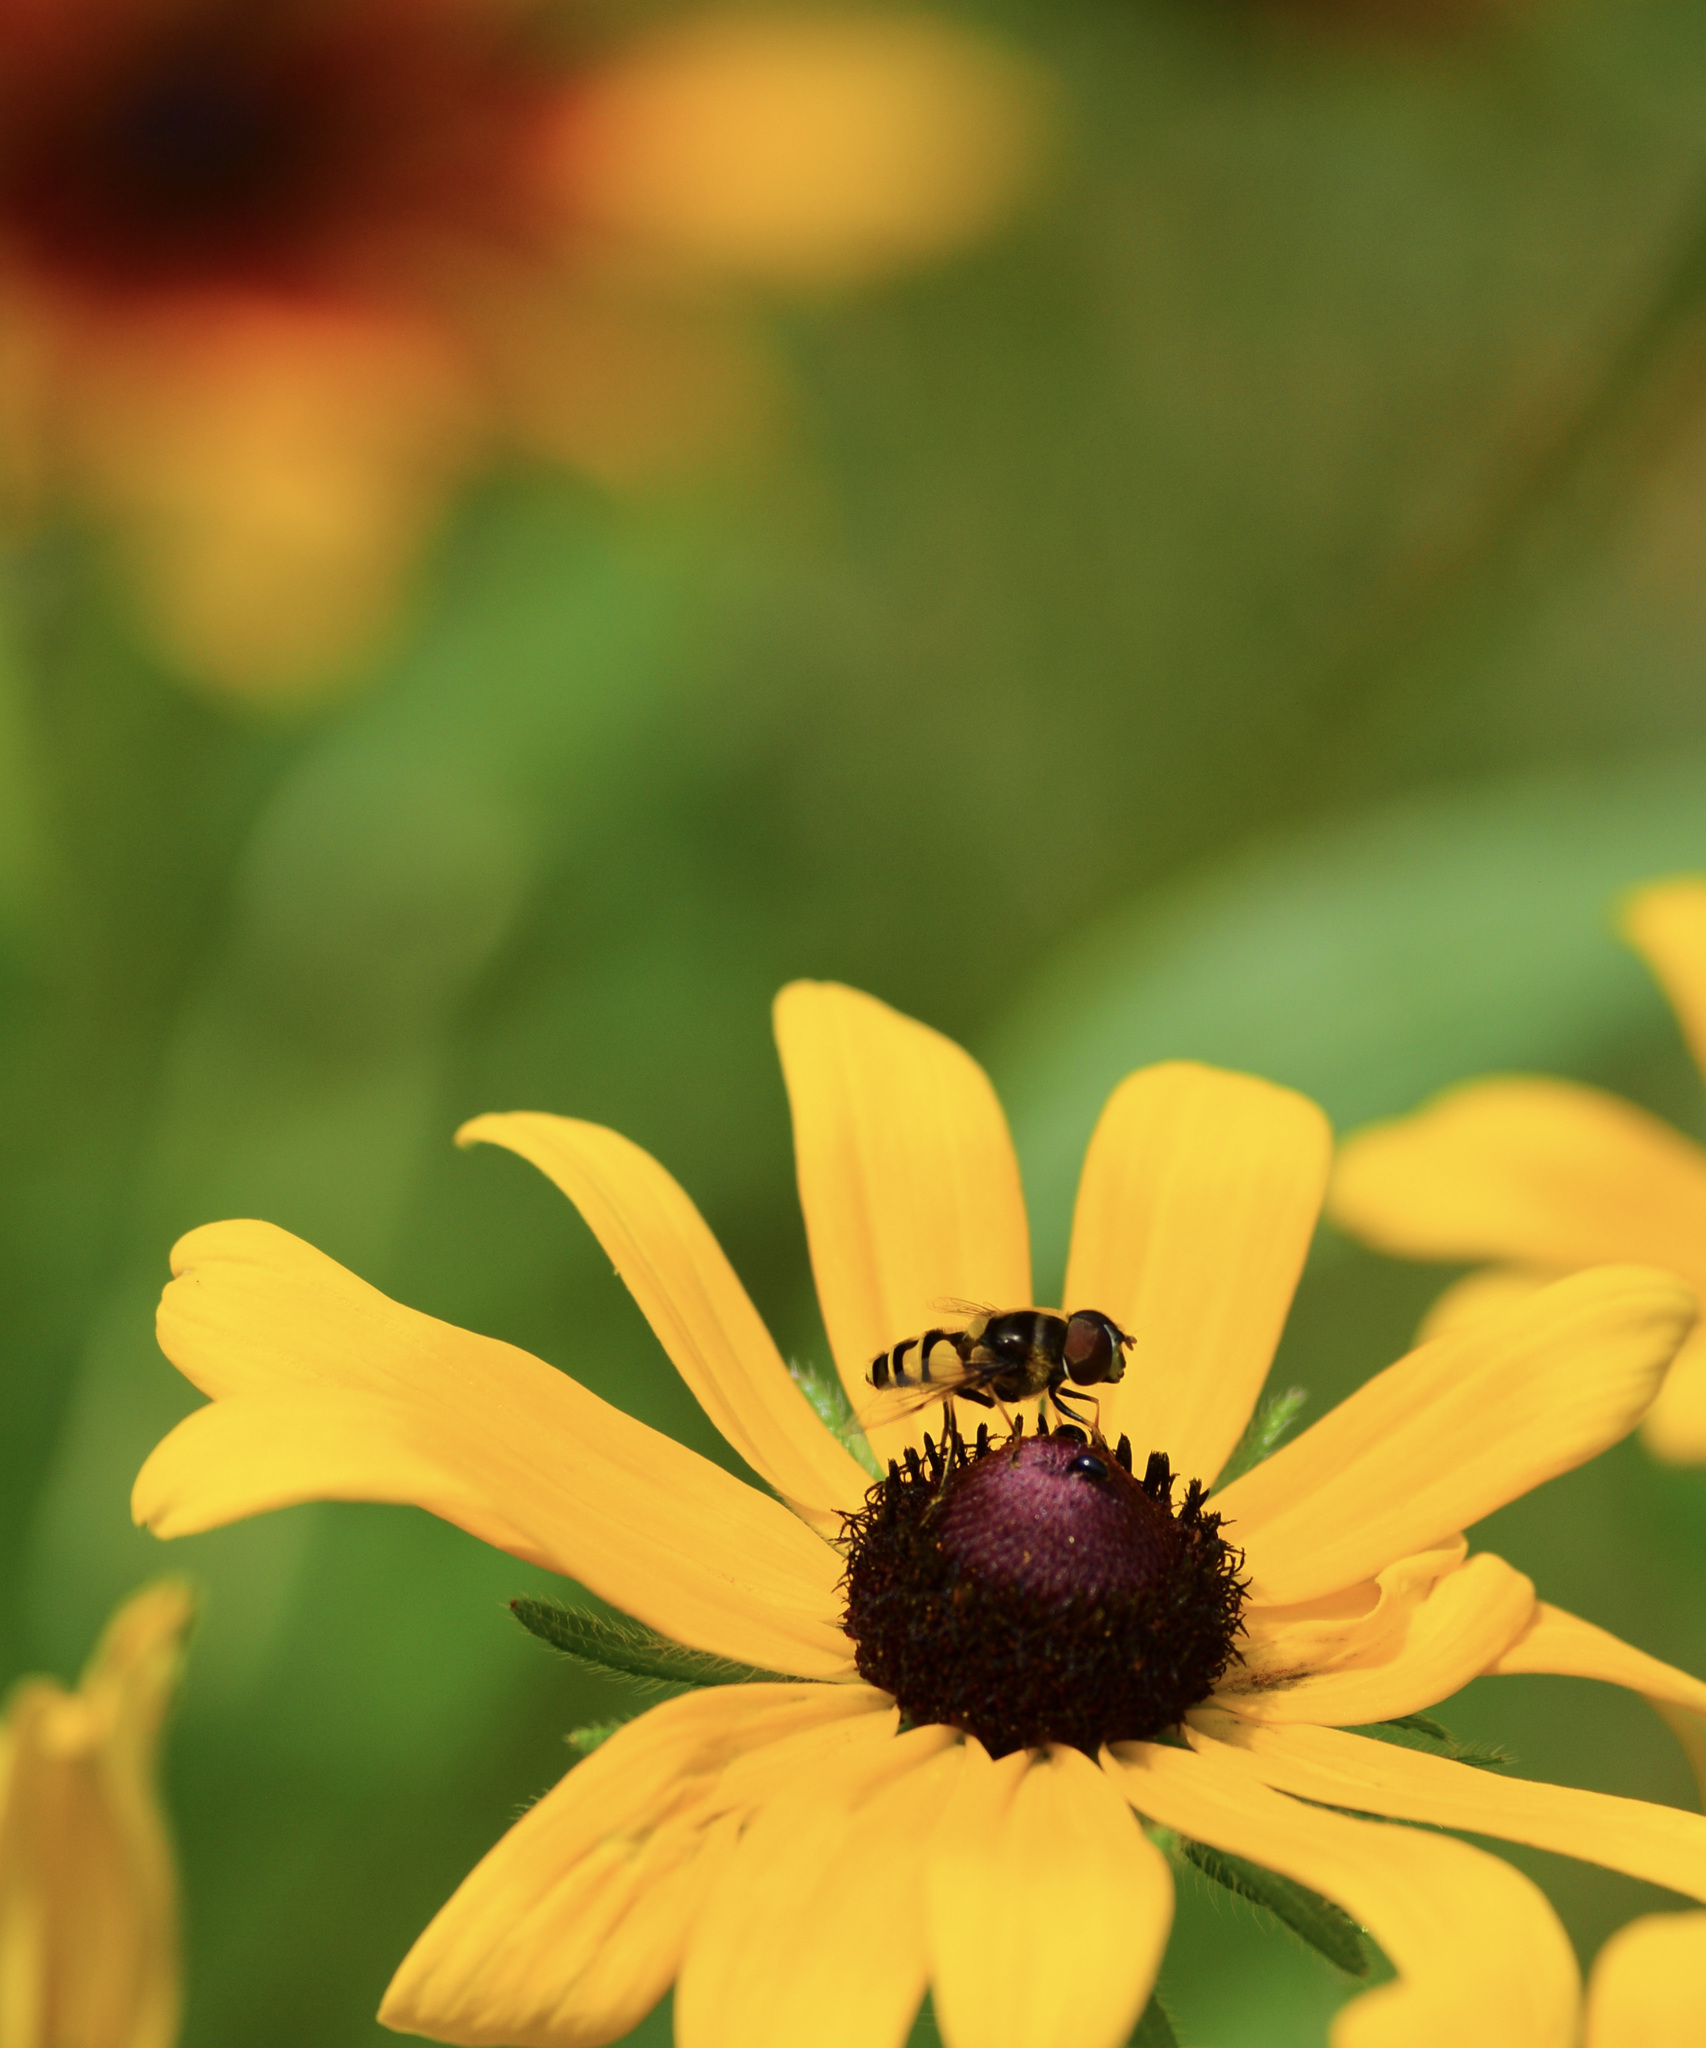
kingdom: Animalia
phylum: Arthropoda
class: Insecta
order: Diptera
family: Syrphidae
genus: Eristalis
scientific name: Eristalis transversa
